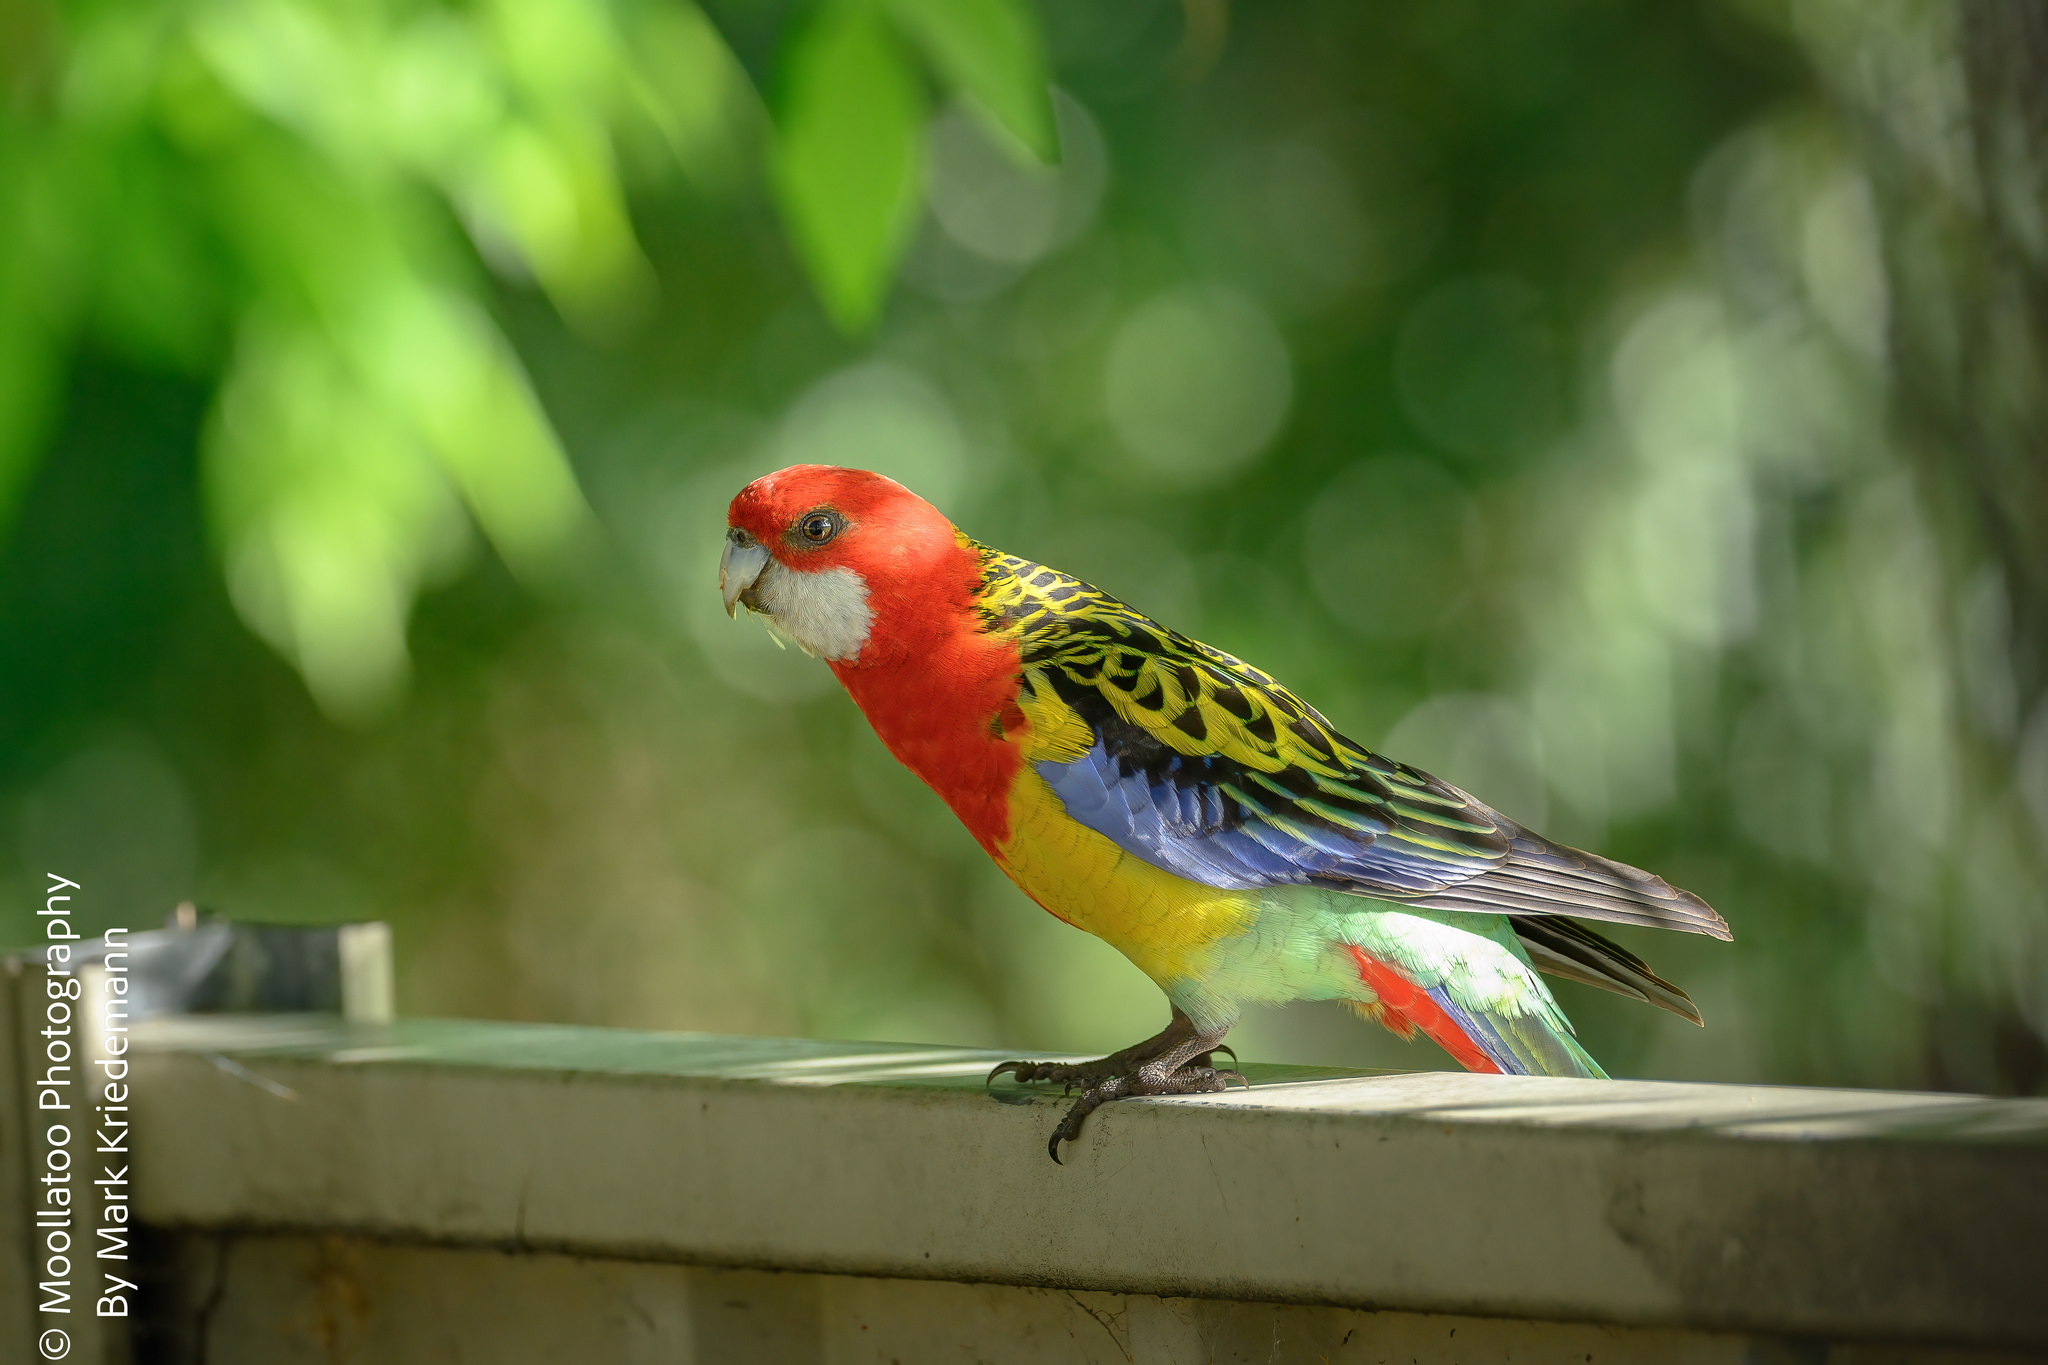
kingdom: Animalia
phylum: Chordata
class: Aves
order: Psittaciformes
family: Psittacidae
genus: Platycercus
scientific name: Platycercus eximius
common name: Eastern rosella
